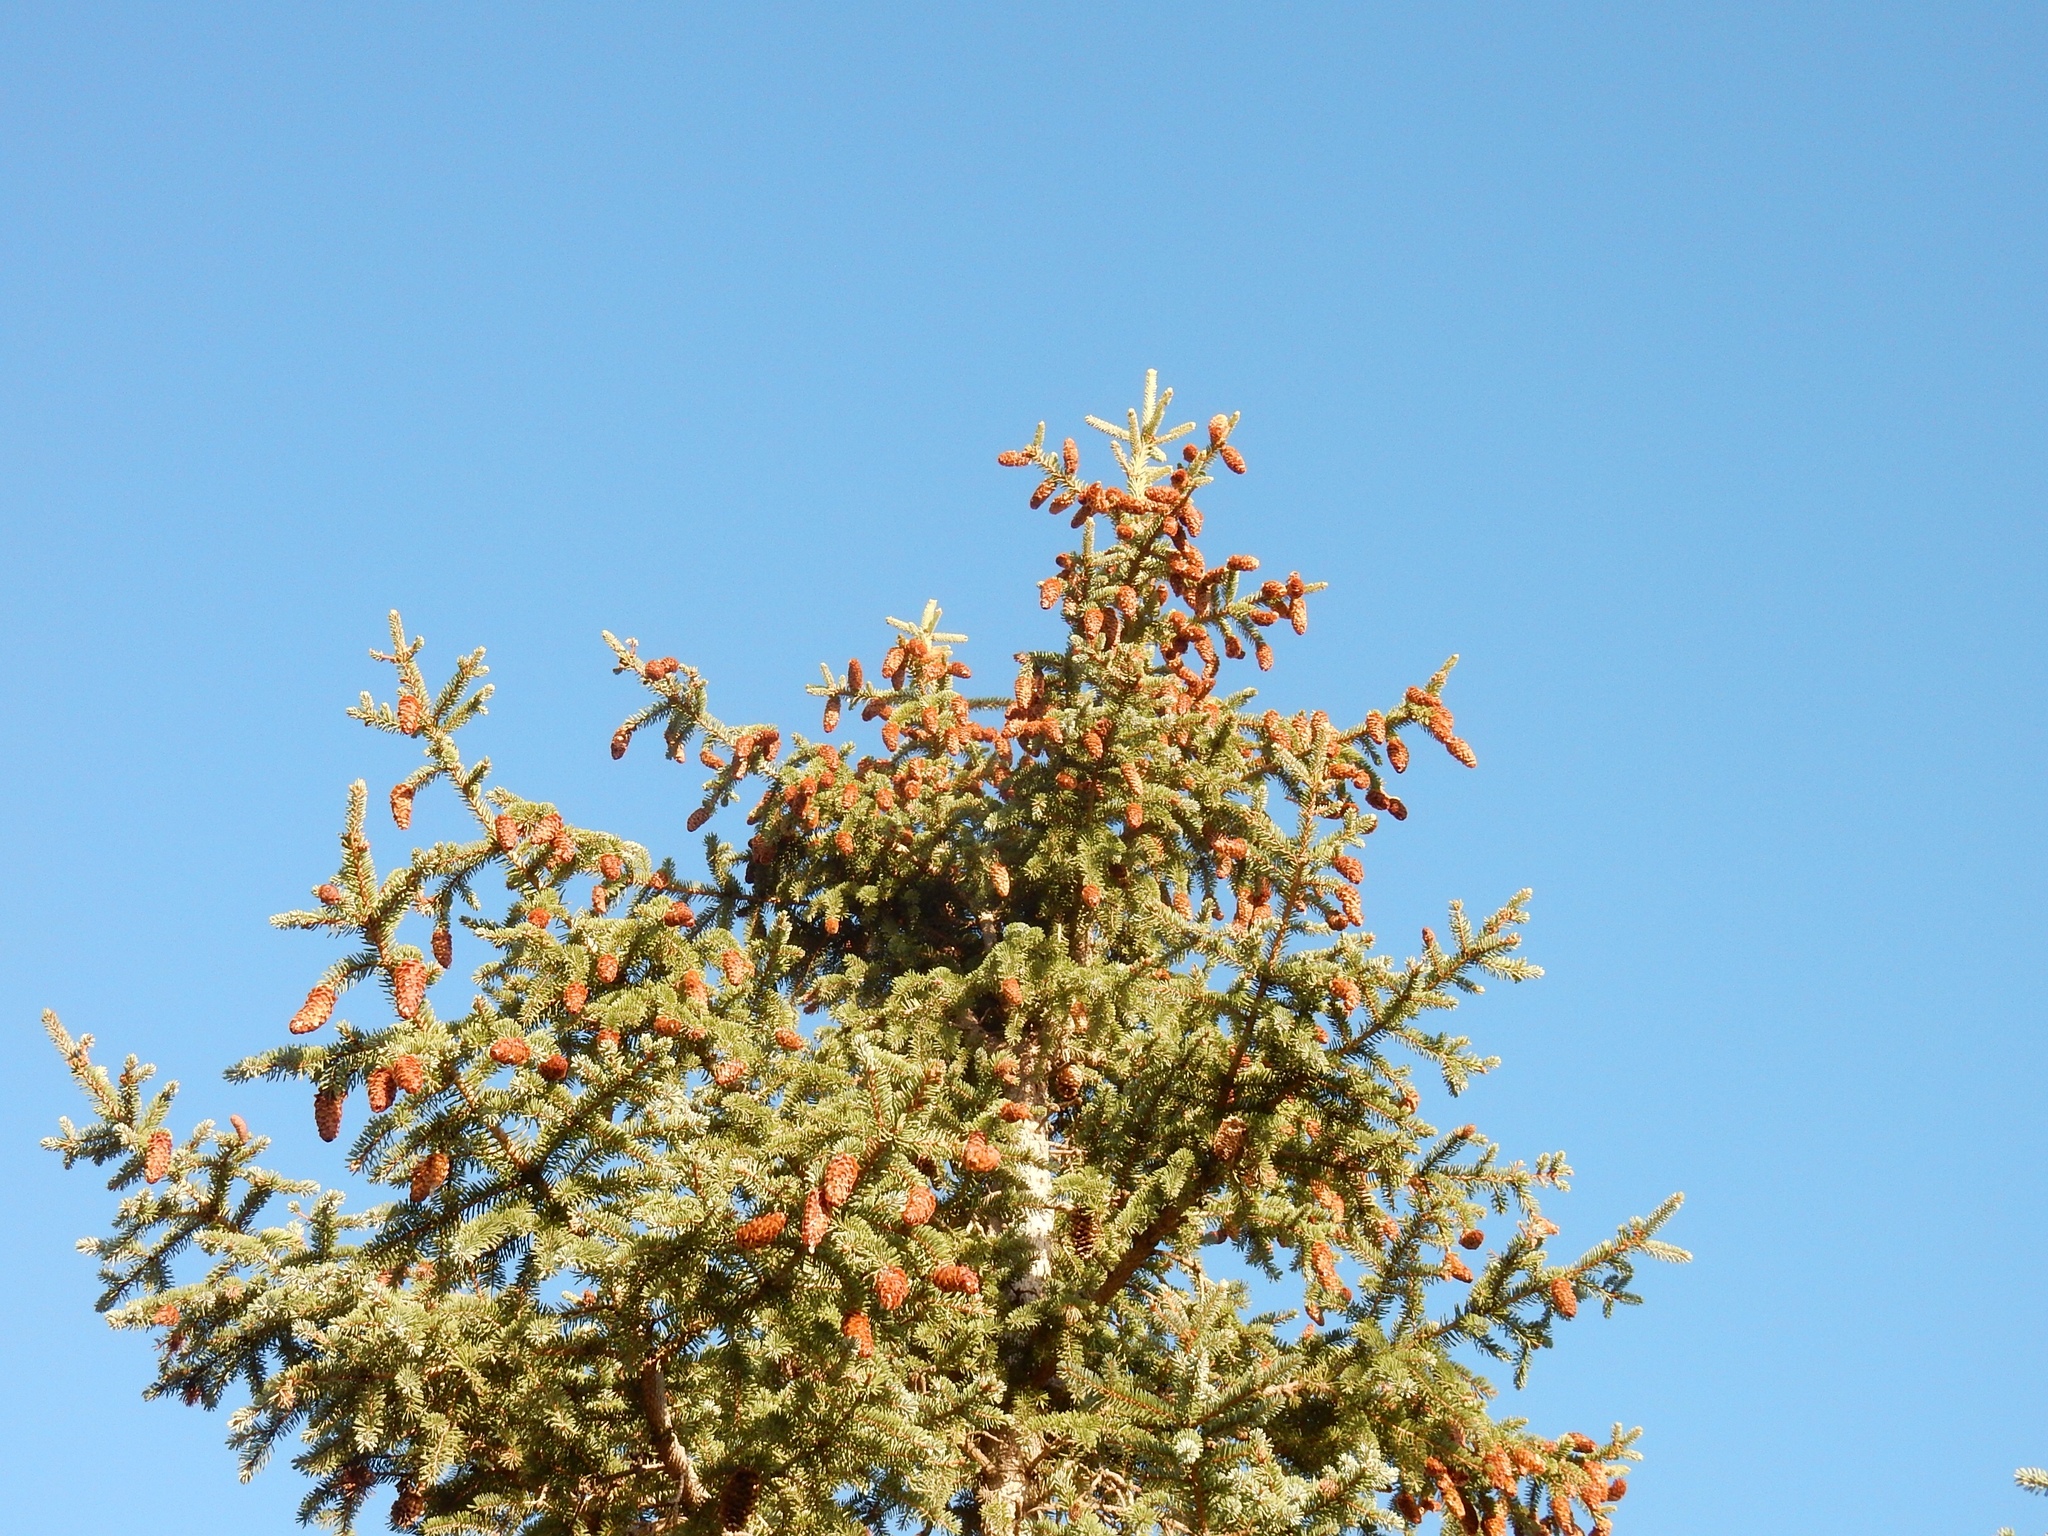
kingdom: Plantae
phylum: Tracheophyta
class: Pinopsida
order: Pinales
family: Pinaceae
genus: Picea
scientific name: Picea engelmannii
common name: Engelmann spruce
